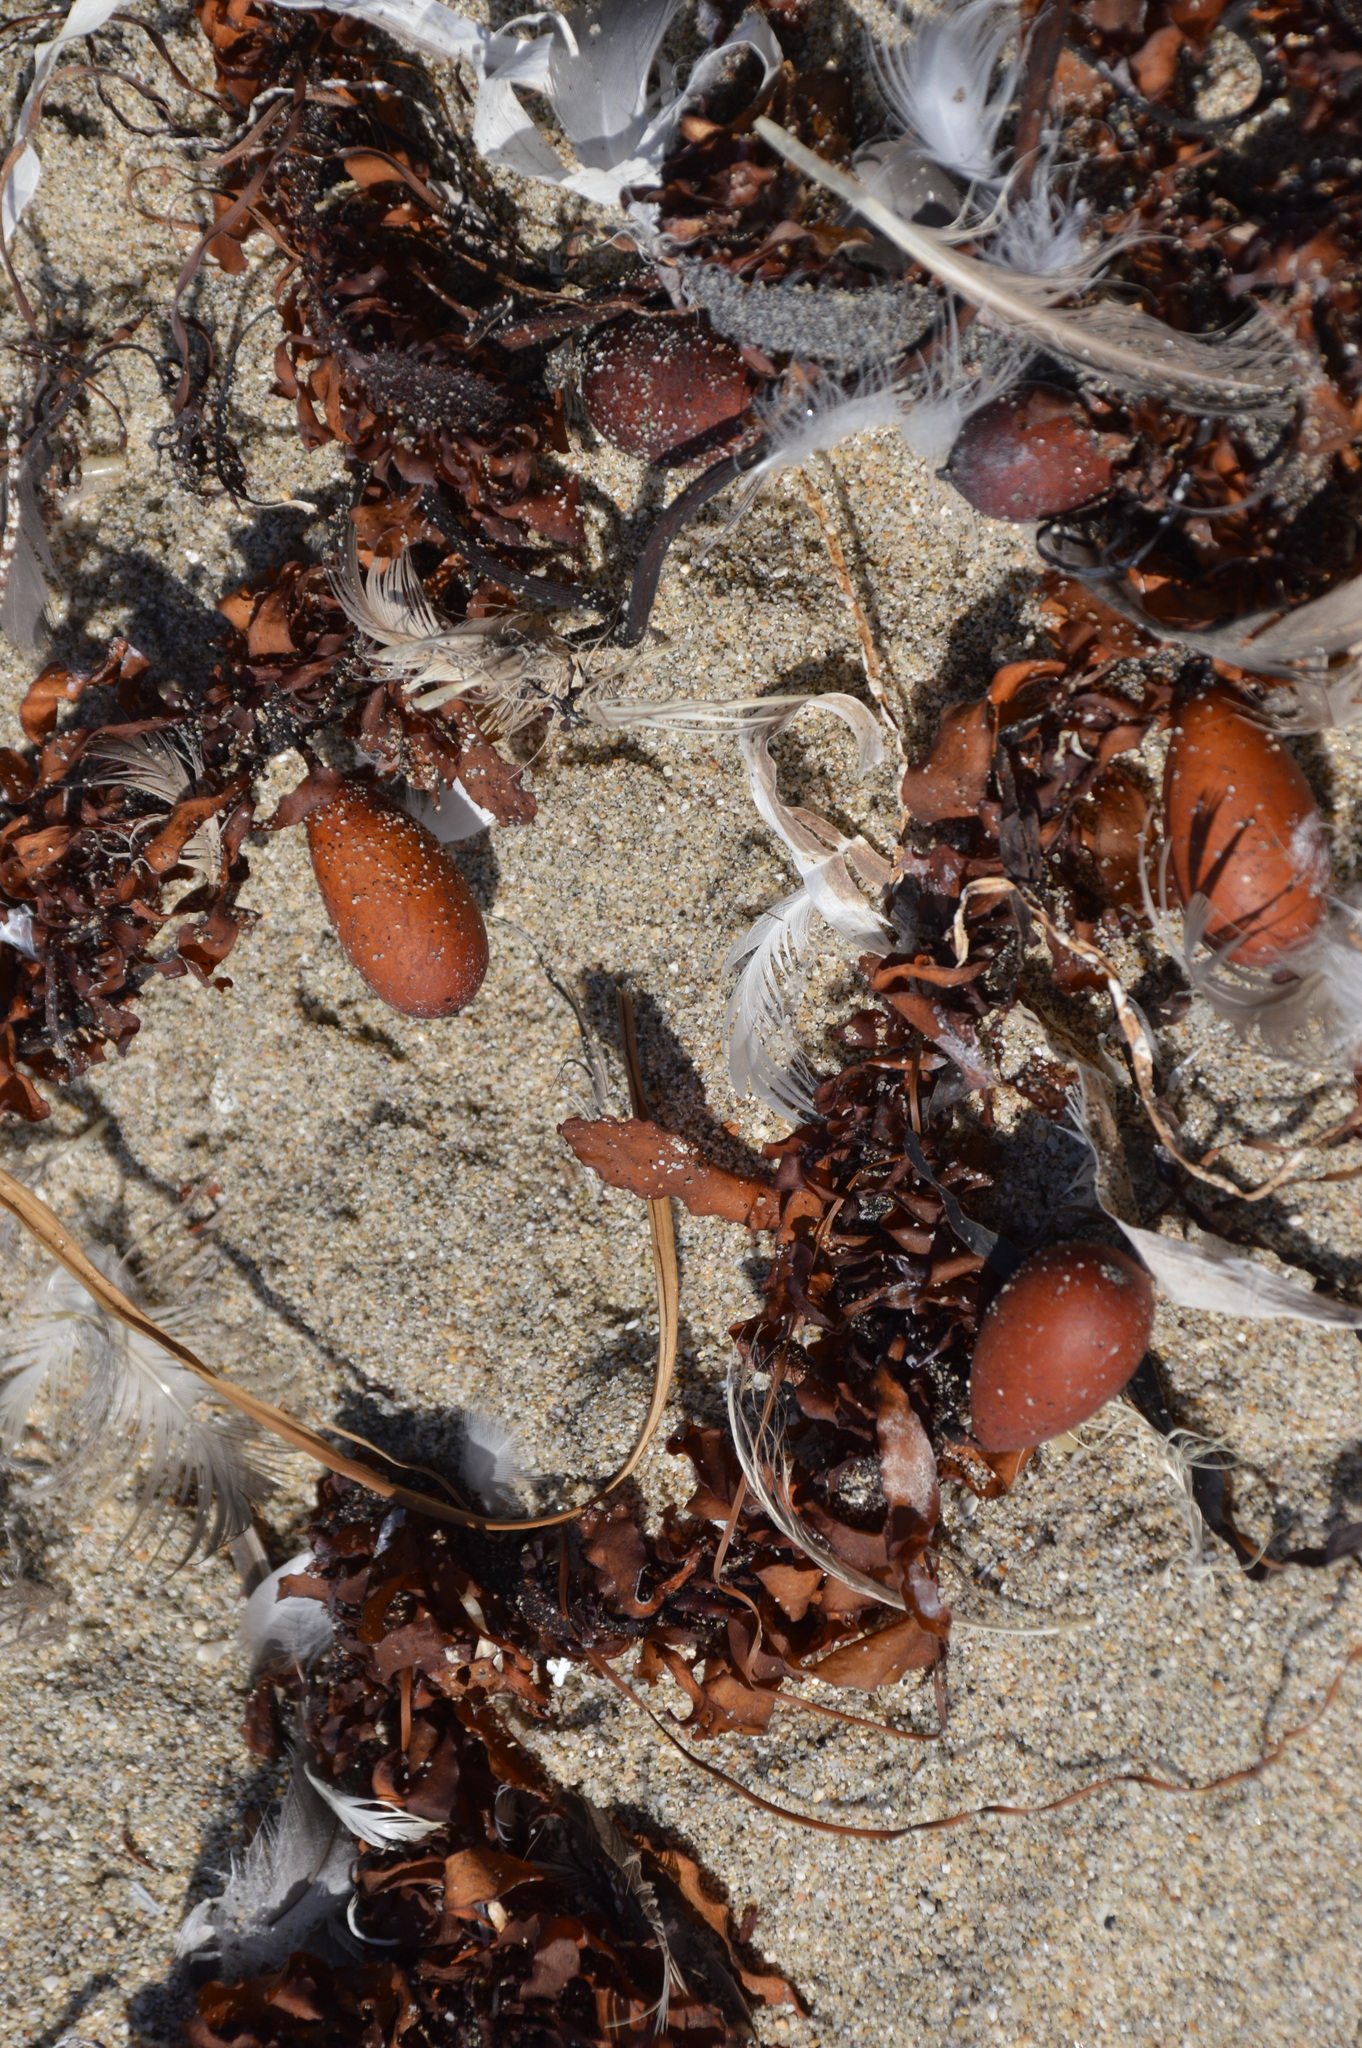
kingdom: Chromista
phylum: Ochrophyta
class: Phaeophyceae
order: Laminariales
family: Lessoniaceae
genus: Egregia
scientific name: Egregia menziesii
